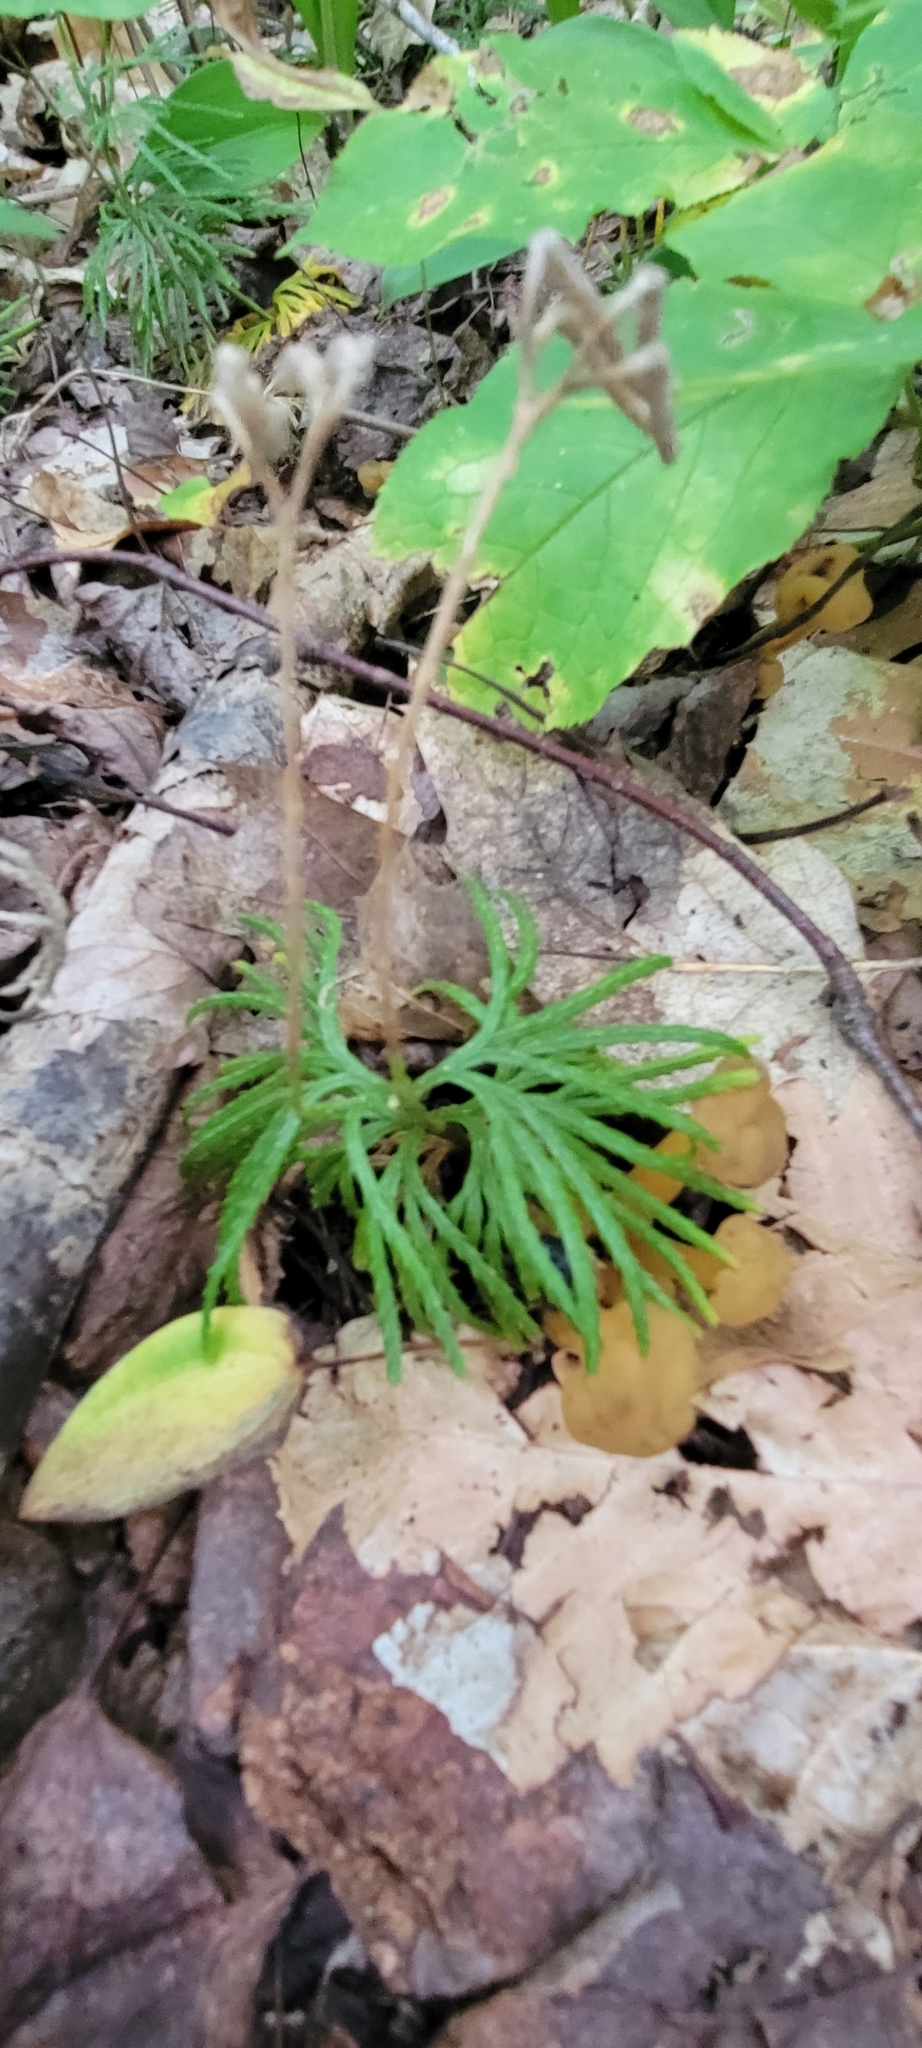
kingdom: Plantae
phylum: Tracheophyta
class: Lycopodiopsida
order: Lycopodiales
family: Lycopodiaceae
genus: Diphasiastrum
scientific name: Diphasiastrum digitatum
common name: Southern running-pine
